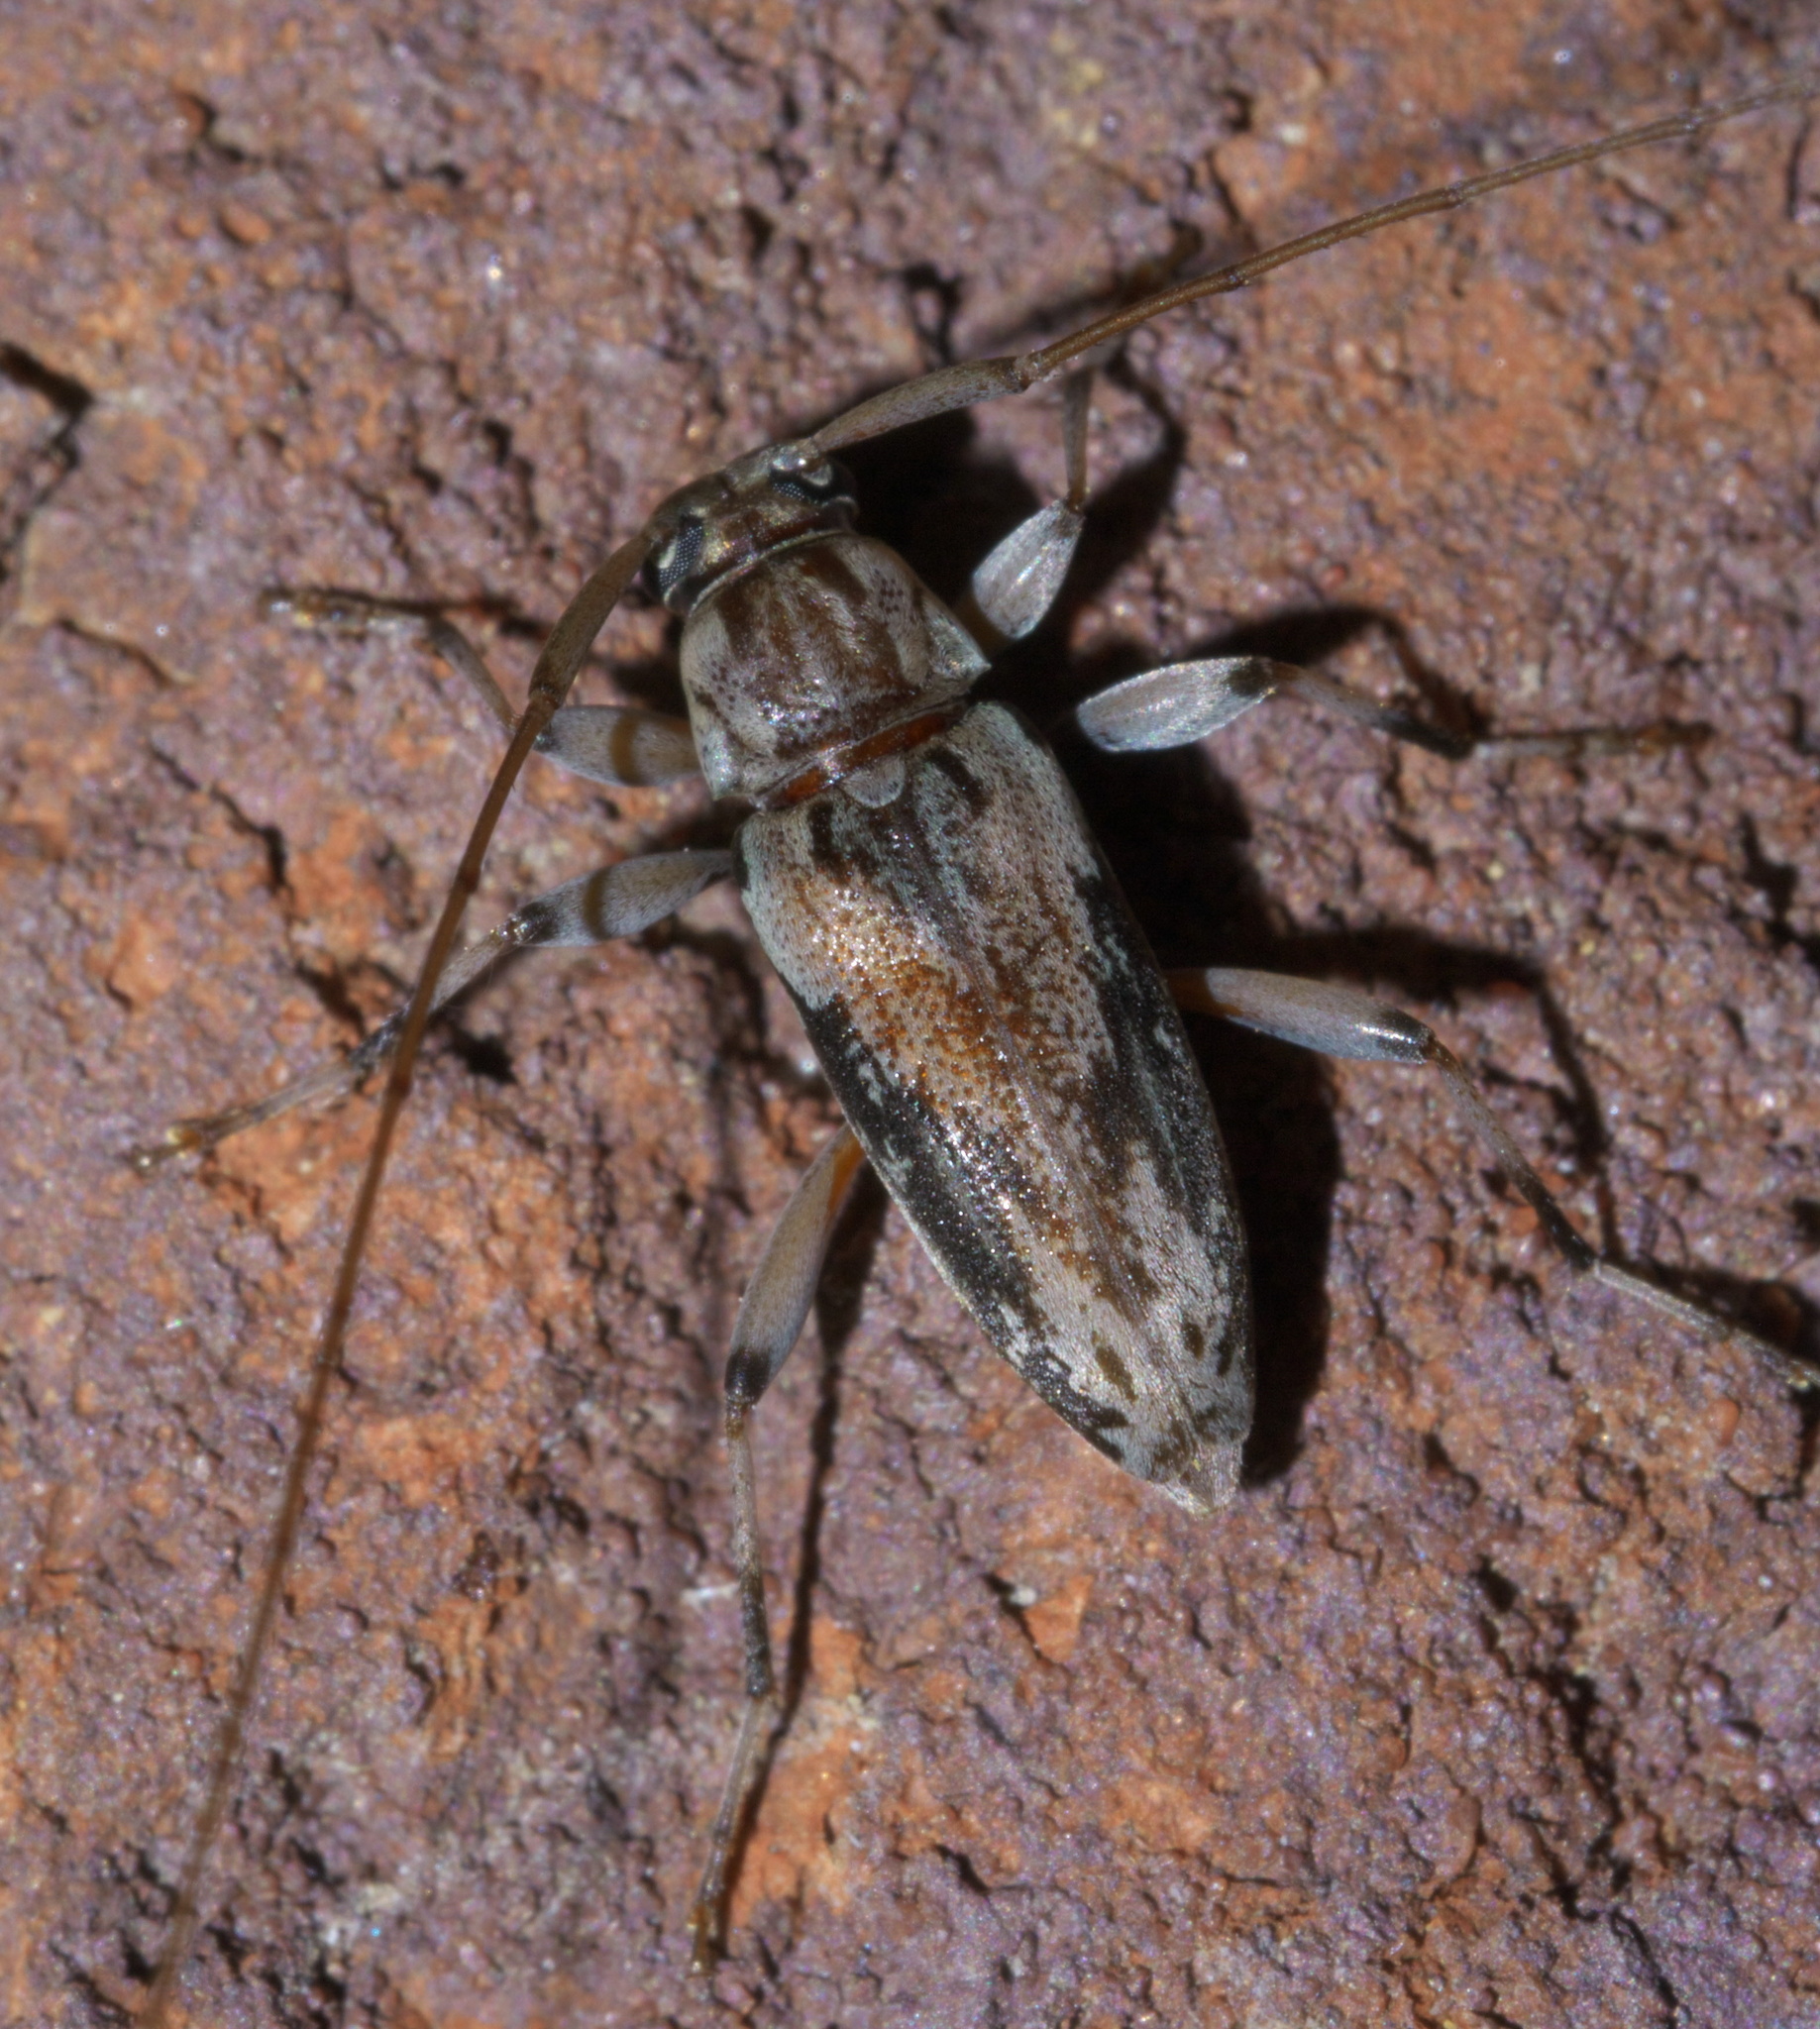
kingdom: Animalia
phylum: Arthropoda
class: Insecta
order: Coleoptera
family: Cerambycidae
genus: Lepturges
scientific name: Lepturges angulatus
